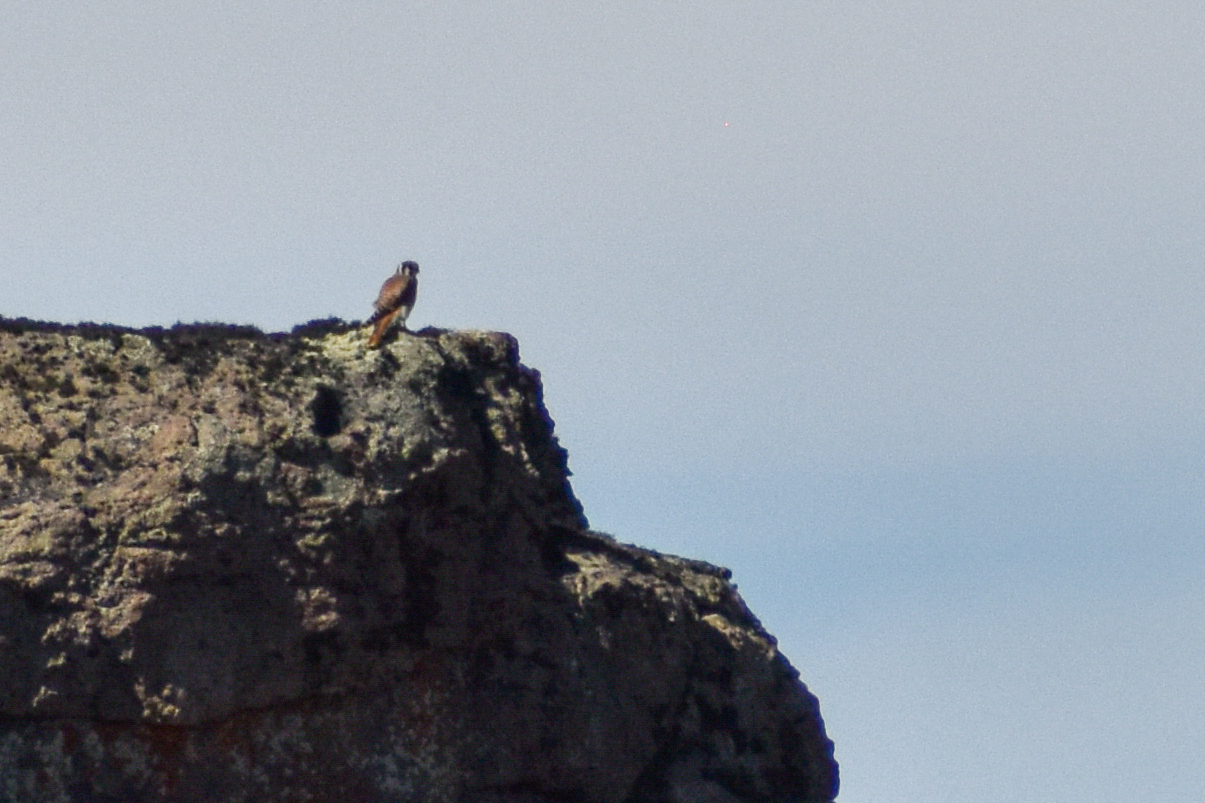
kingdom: Animalia
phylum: Chordata
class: Aves
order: Falconiformes
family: Falconidae
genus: Falco
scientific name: Falco sparverius
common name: American kestrel
